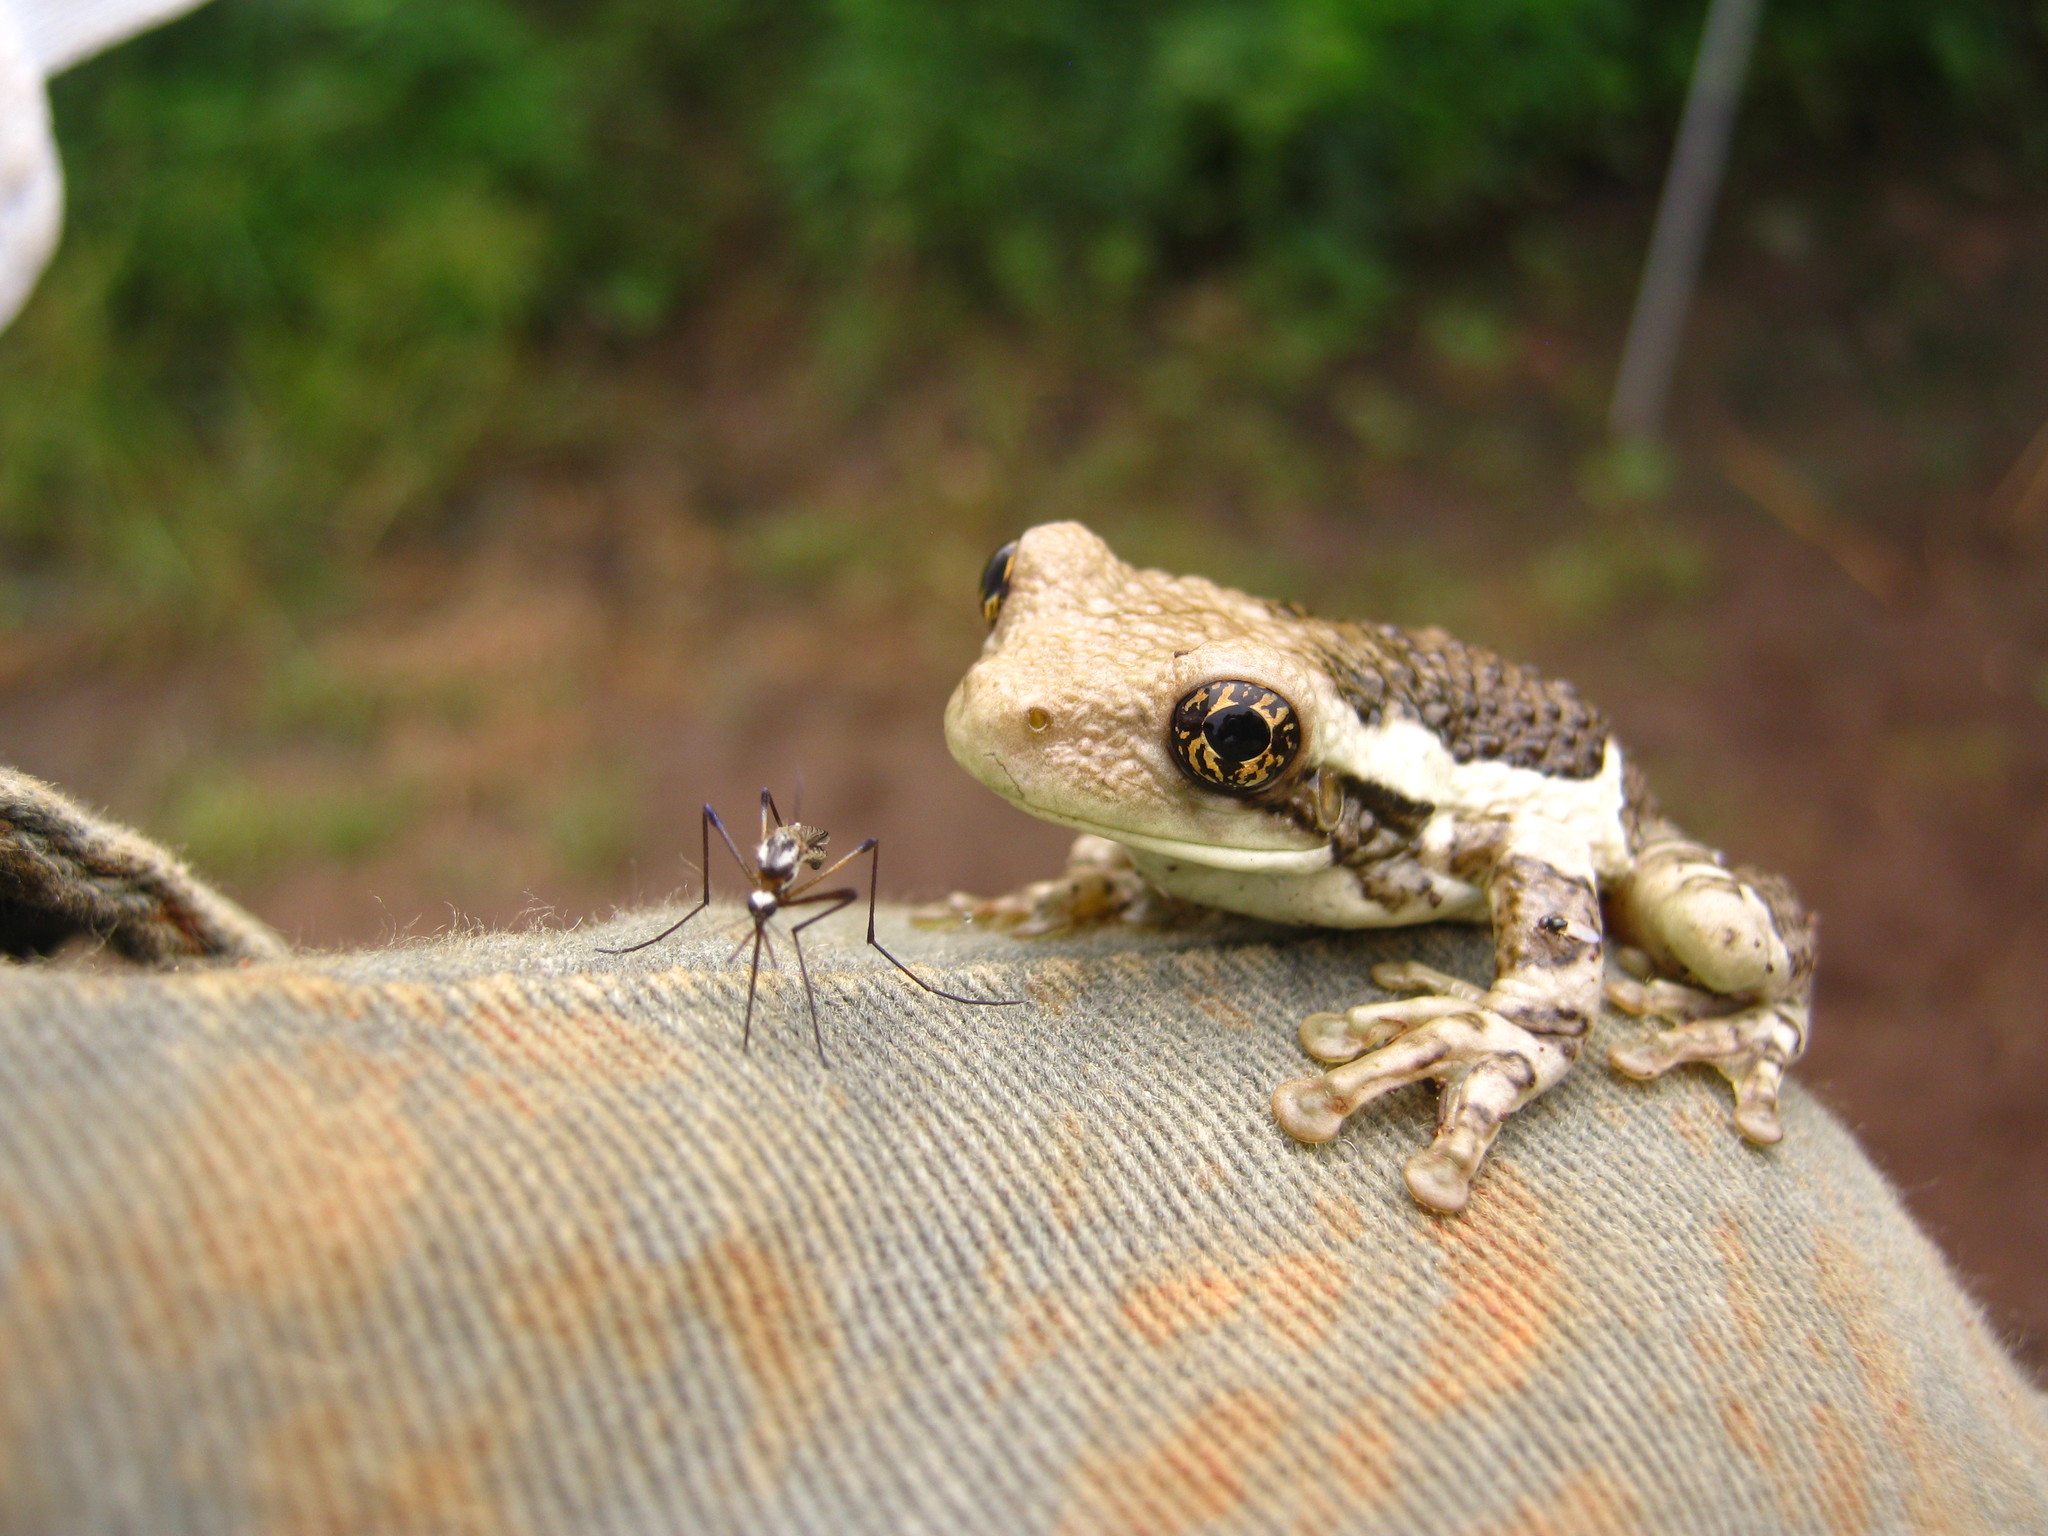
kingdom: Animalia
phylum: Chordata
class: Amphibia
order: Anura
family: Hylidae
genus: Trachycephalus
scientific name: Trachycephalus vermiculatus
